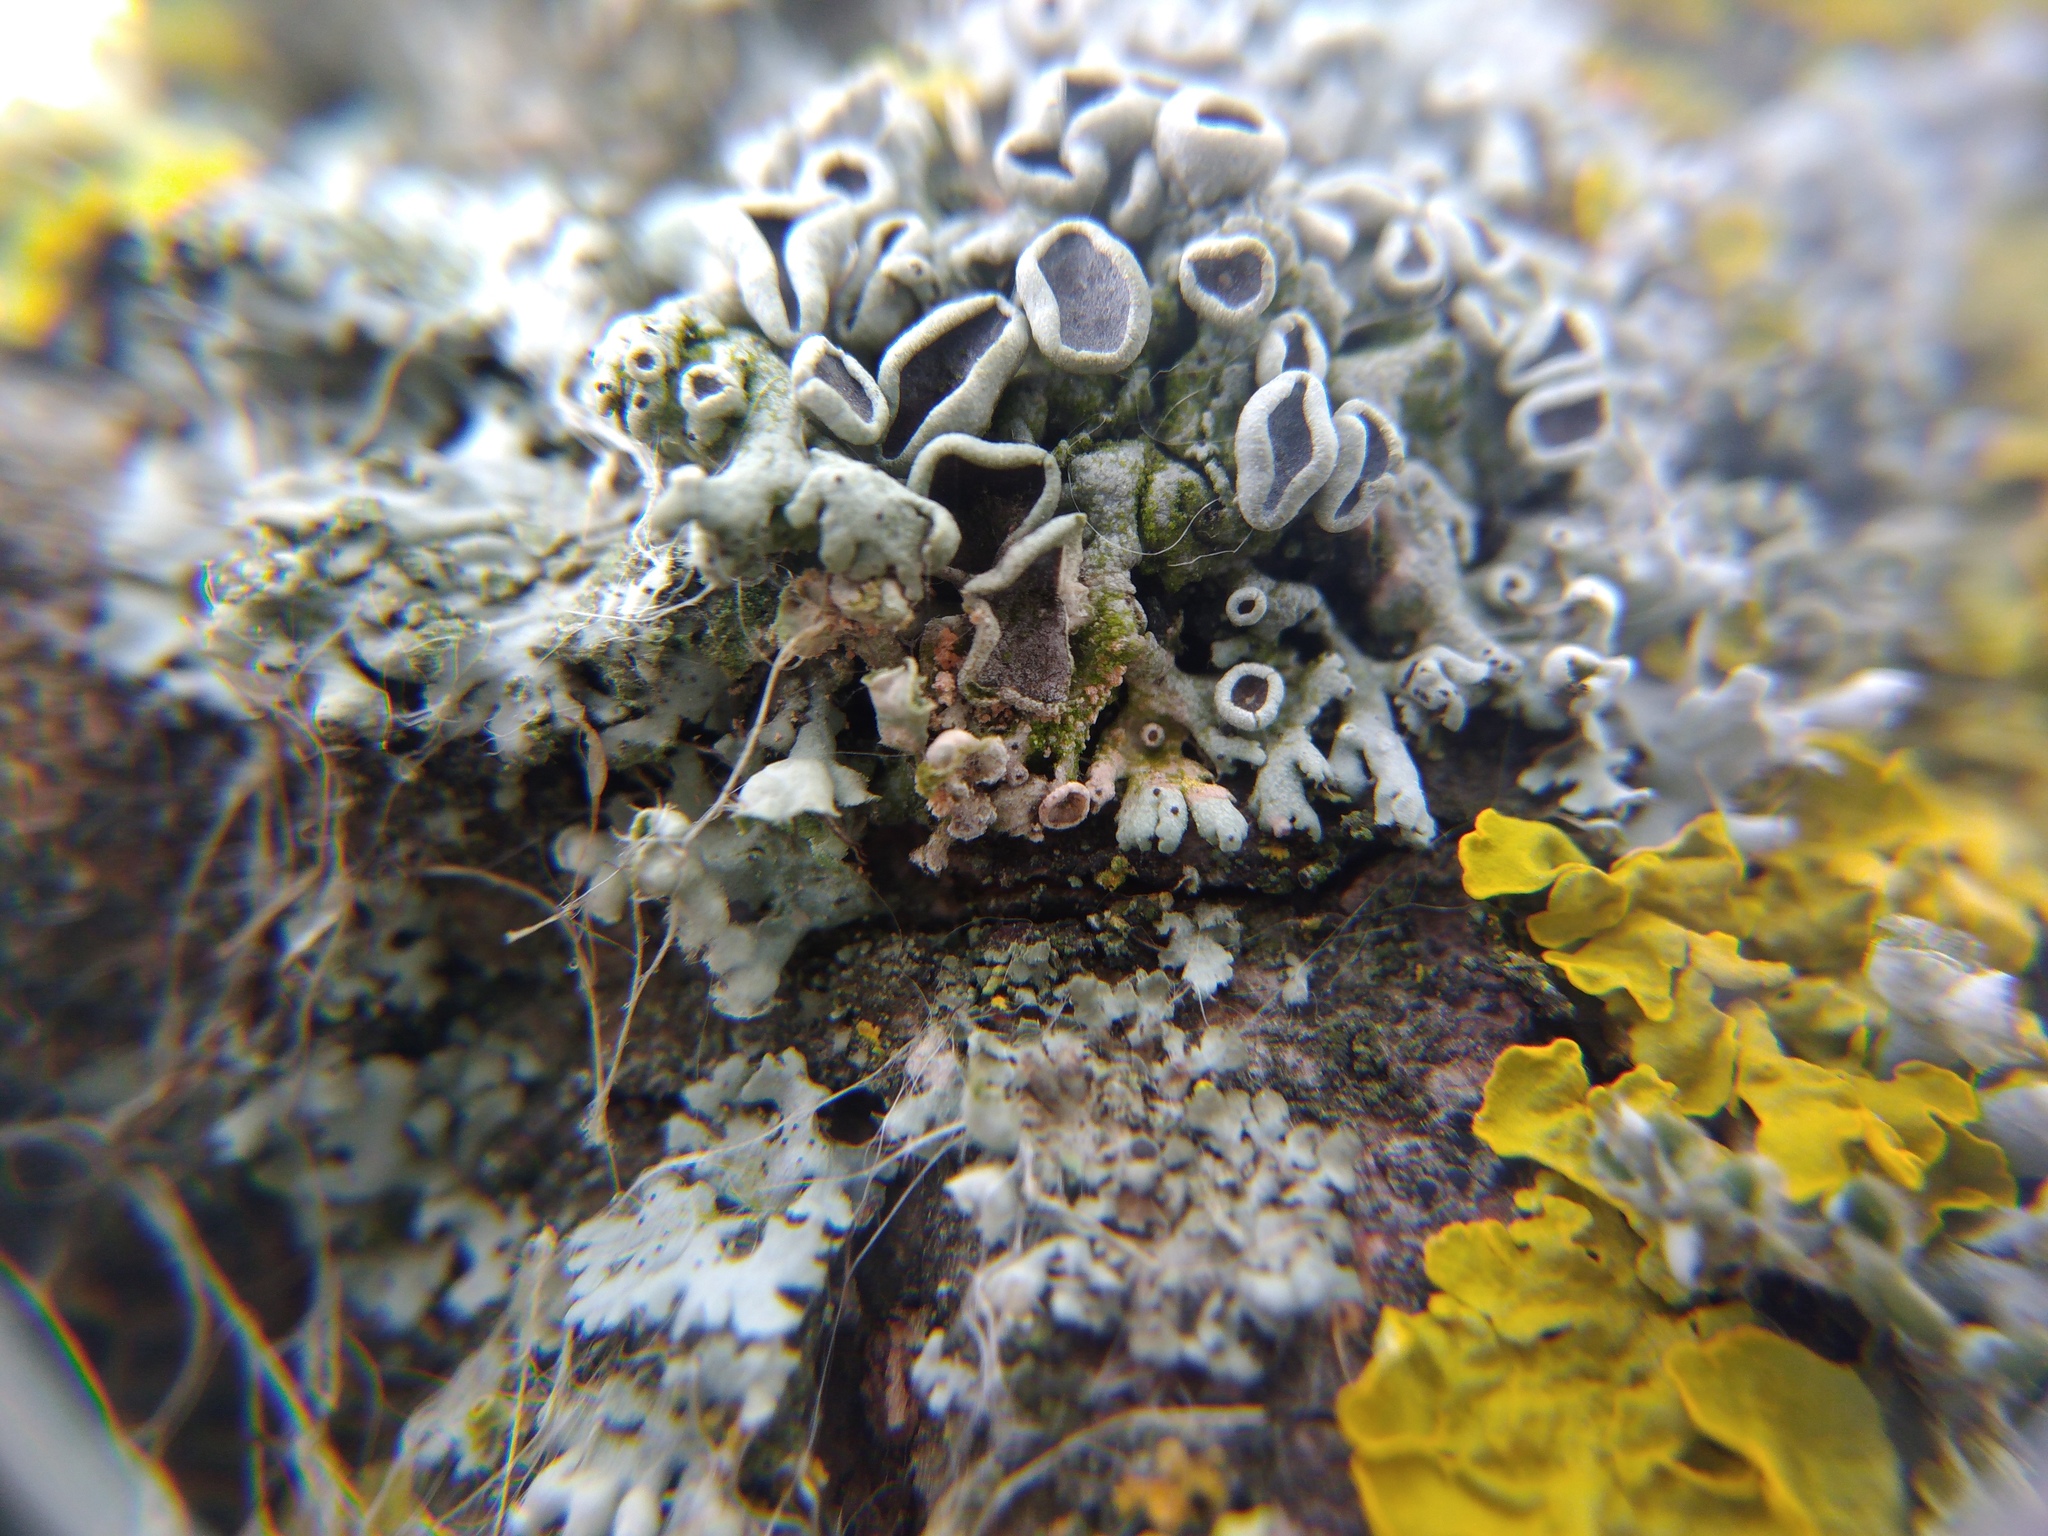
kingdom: Fungi
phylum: Basidiomycota
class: Agaricomycetes
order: Corticiales
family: Corticiaceae
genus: Erythricium
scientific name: Erythricium aurantiacum
